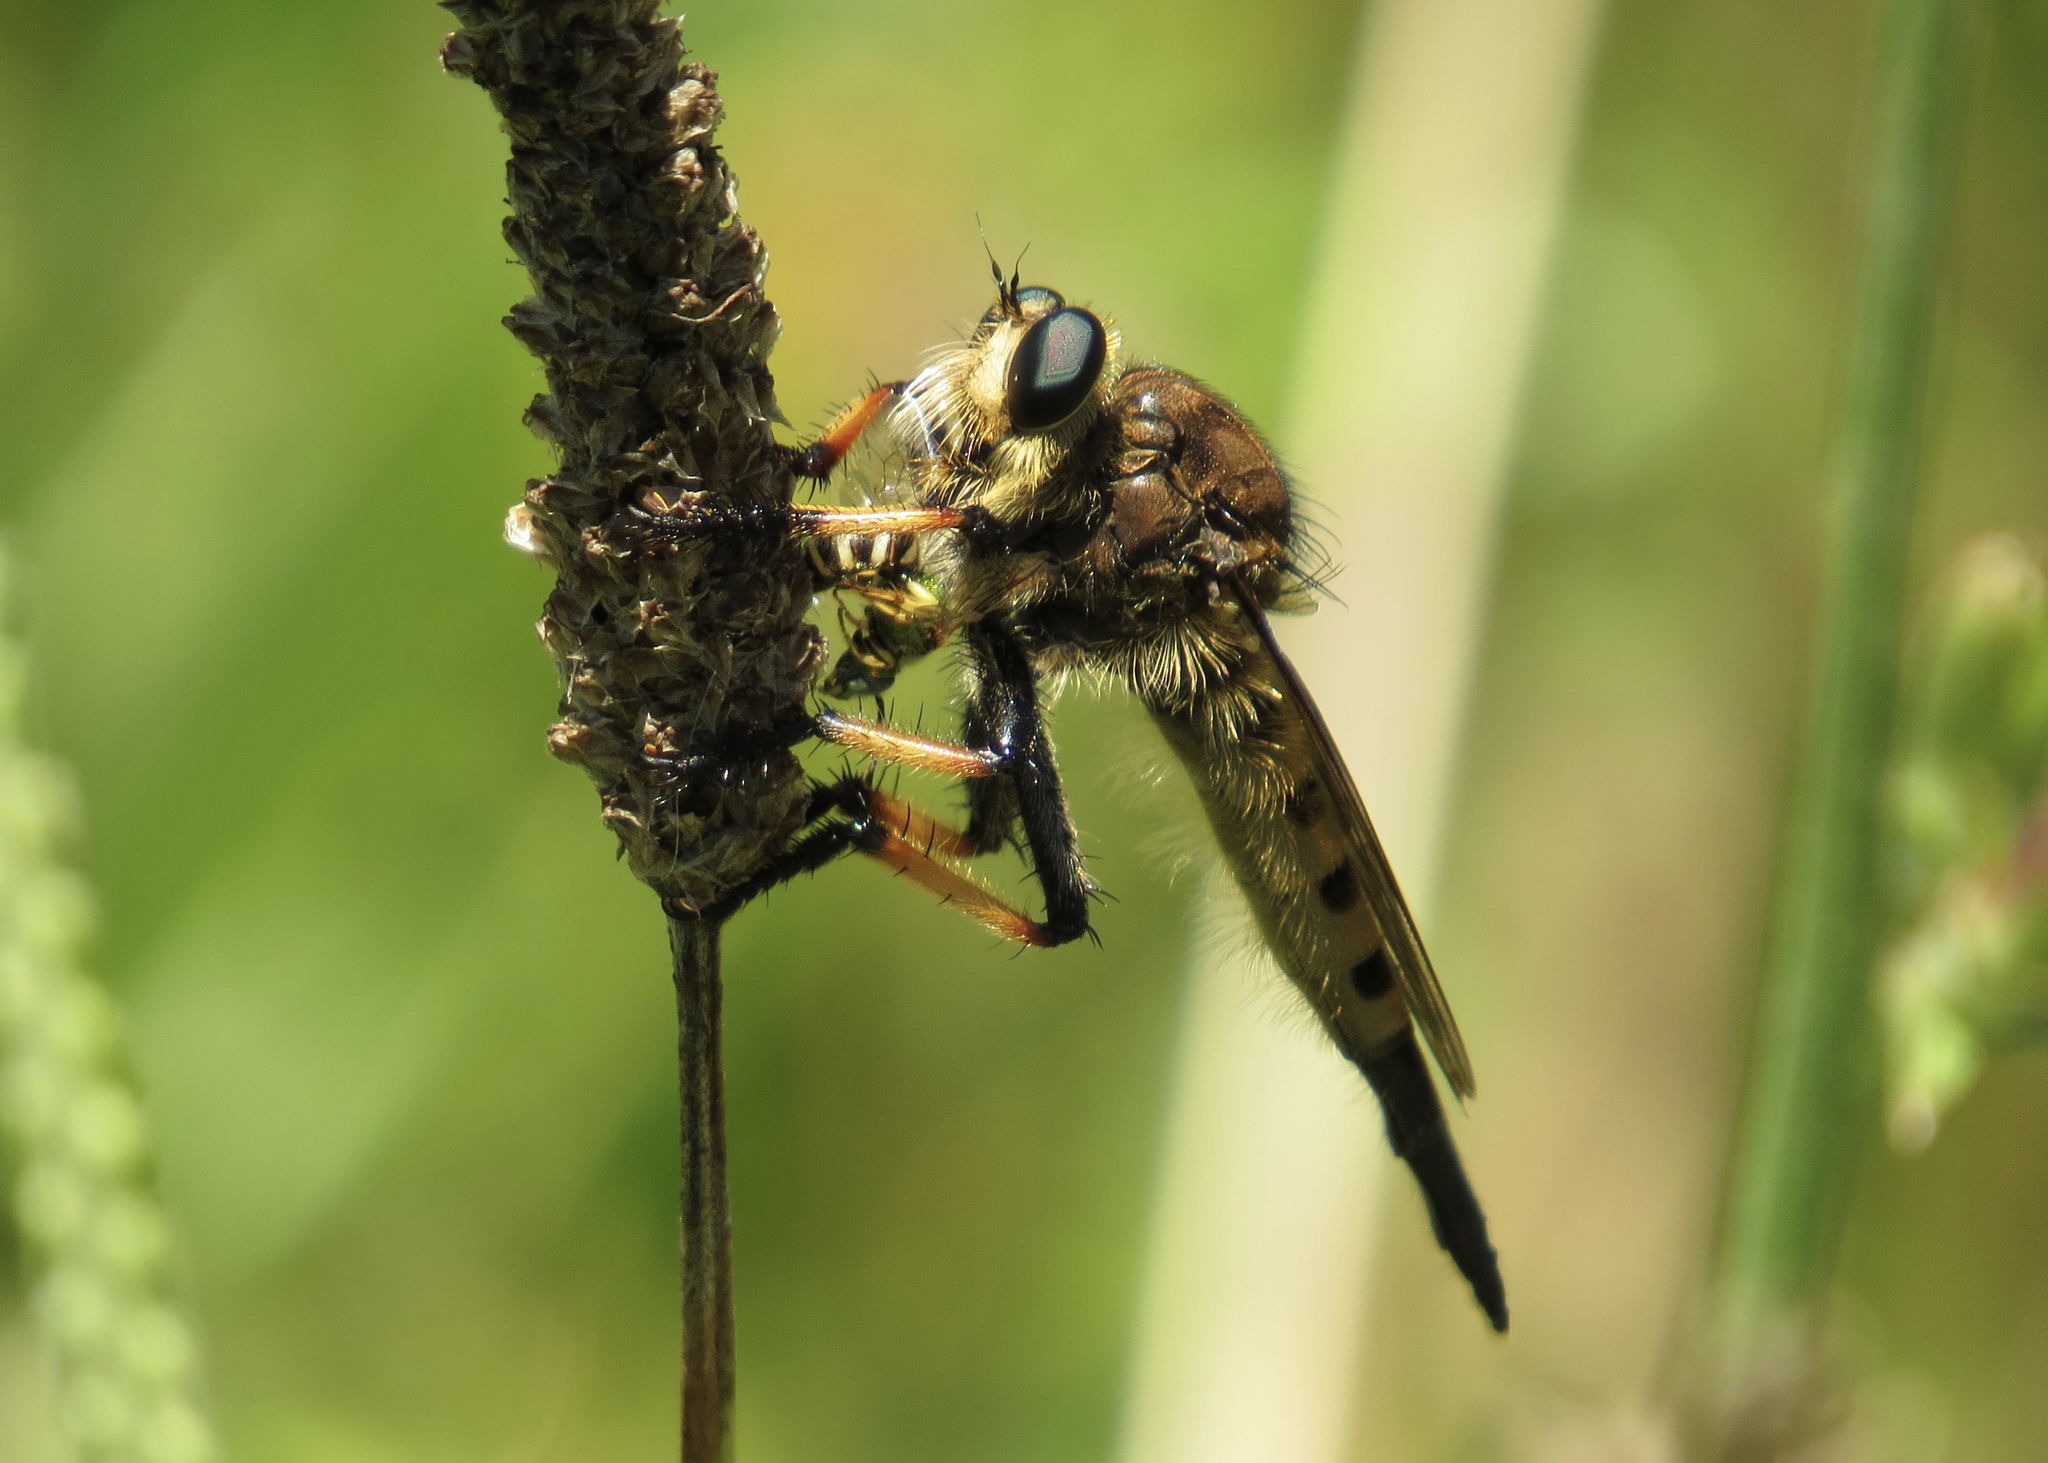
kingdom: Animalia
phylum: Arthropoda
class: Insecta
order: Diptera
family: Asilidae
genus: Promachus
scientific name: Promachus rufipes
